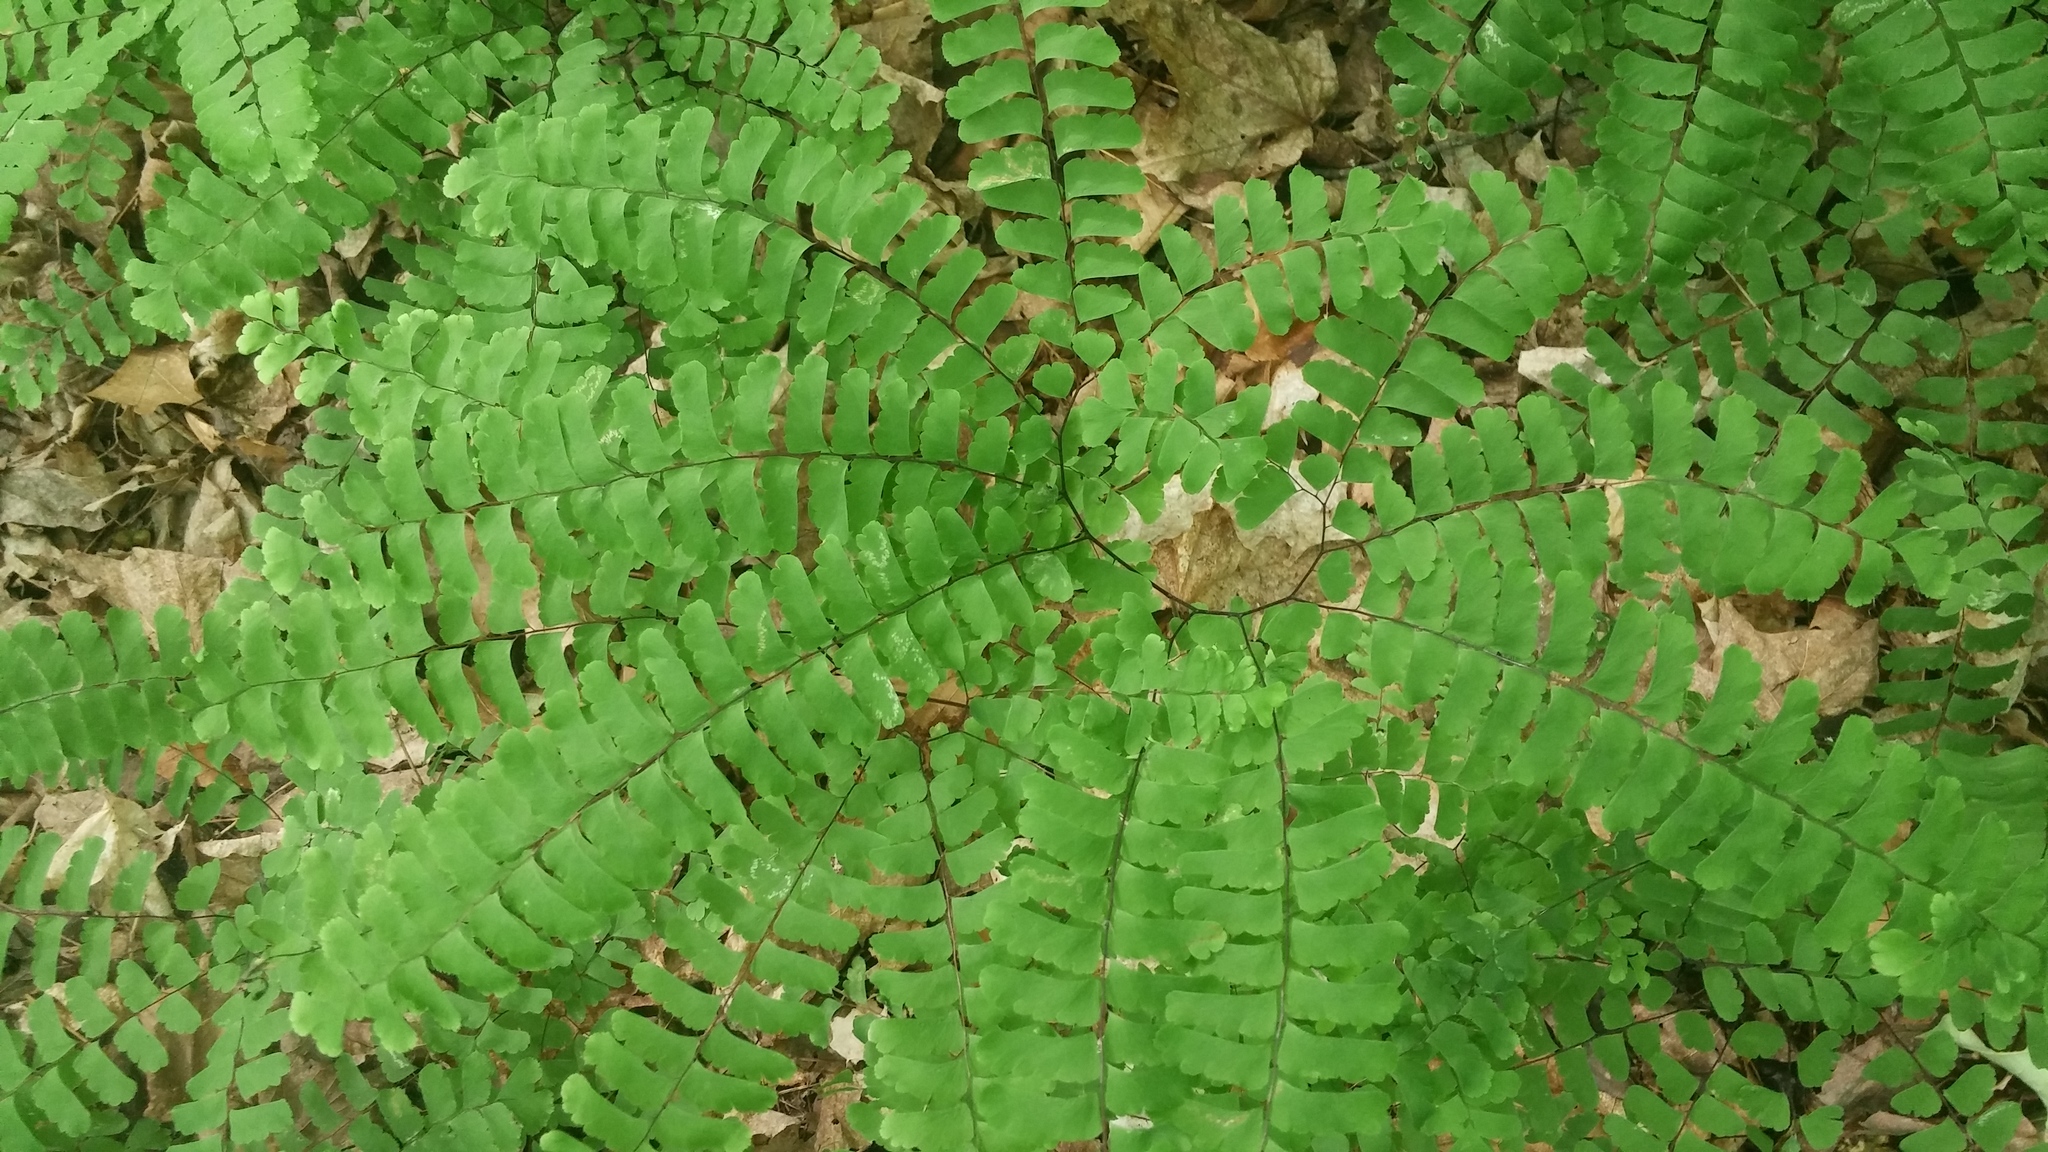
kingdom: Plantae
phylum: Tracheophyta
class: Polypodiopsida
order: Polypodiales
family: Pteridaceae
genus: Adiantum
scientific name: Adiantum pedatum
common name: Five-finger fern
